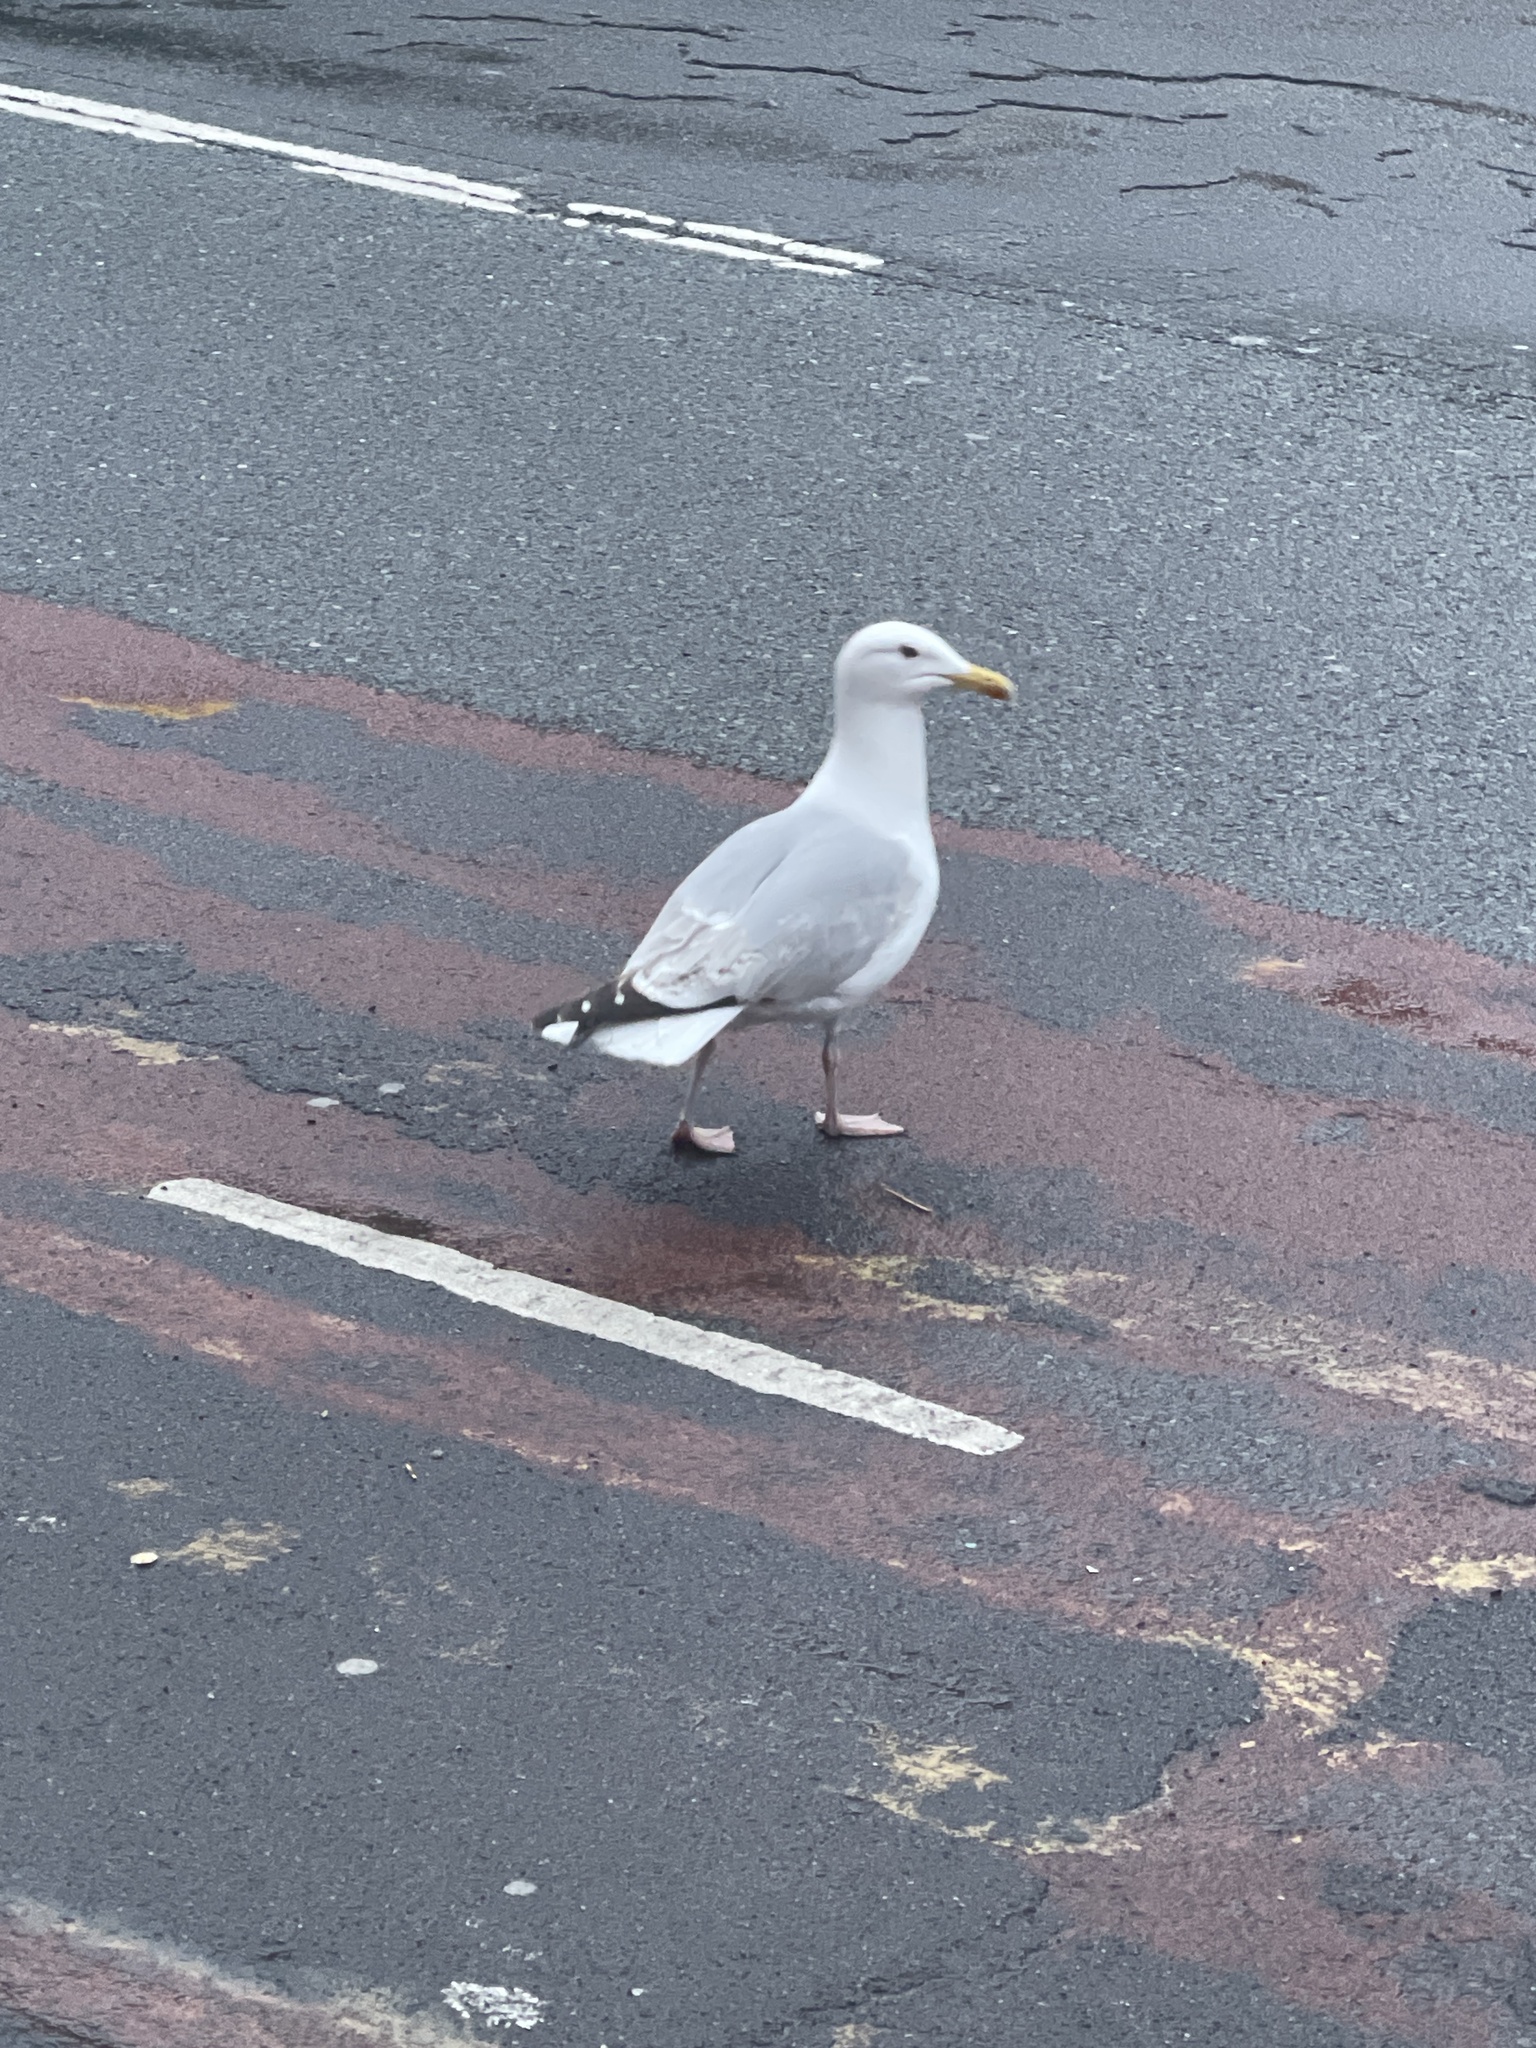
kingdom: Animalia
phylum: Chordata
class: Aves
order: Charadriiformes
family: Laridae
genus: Larus
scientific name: Larus argentatus
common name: Herring gull
